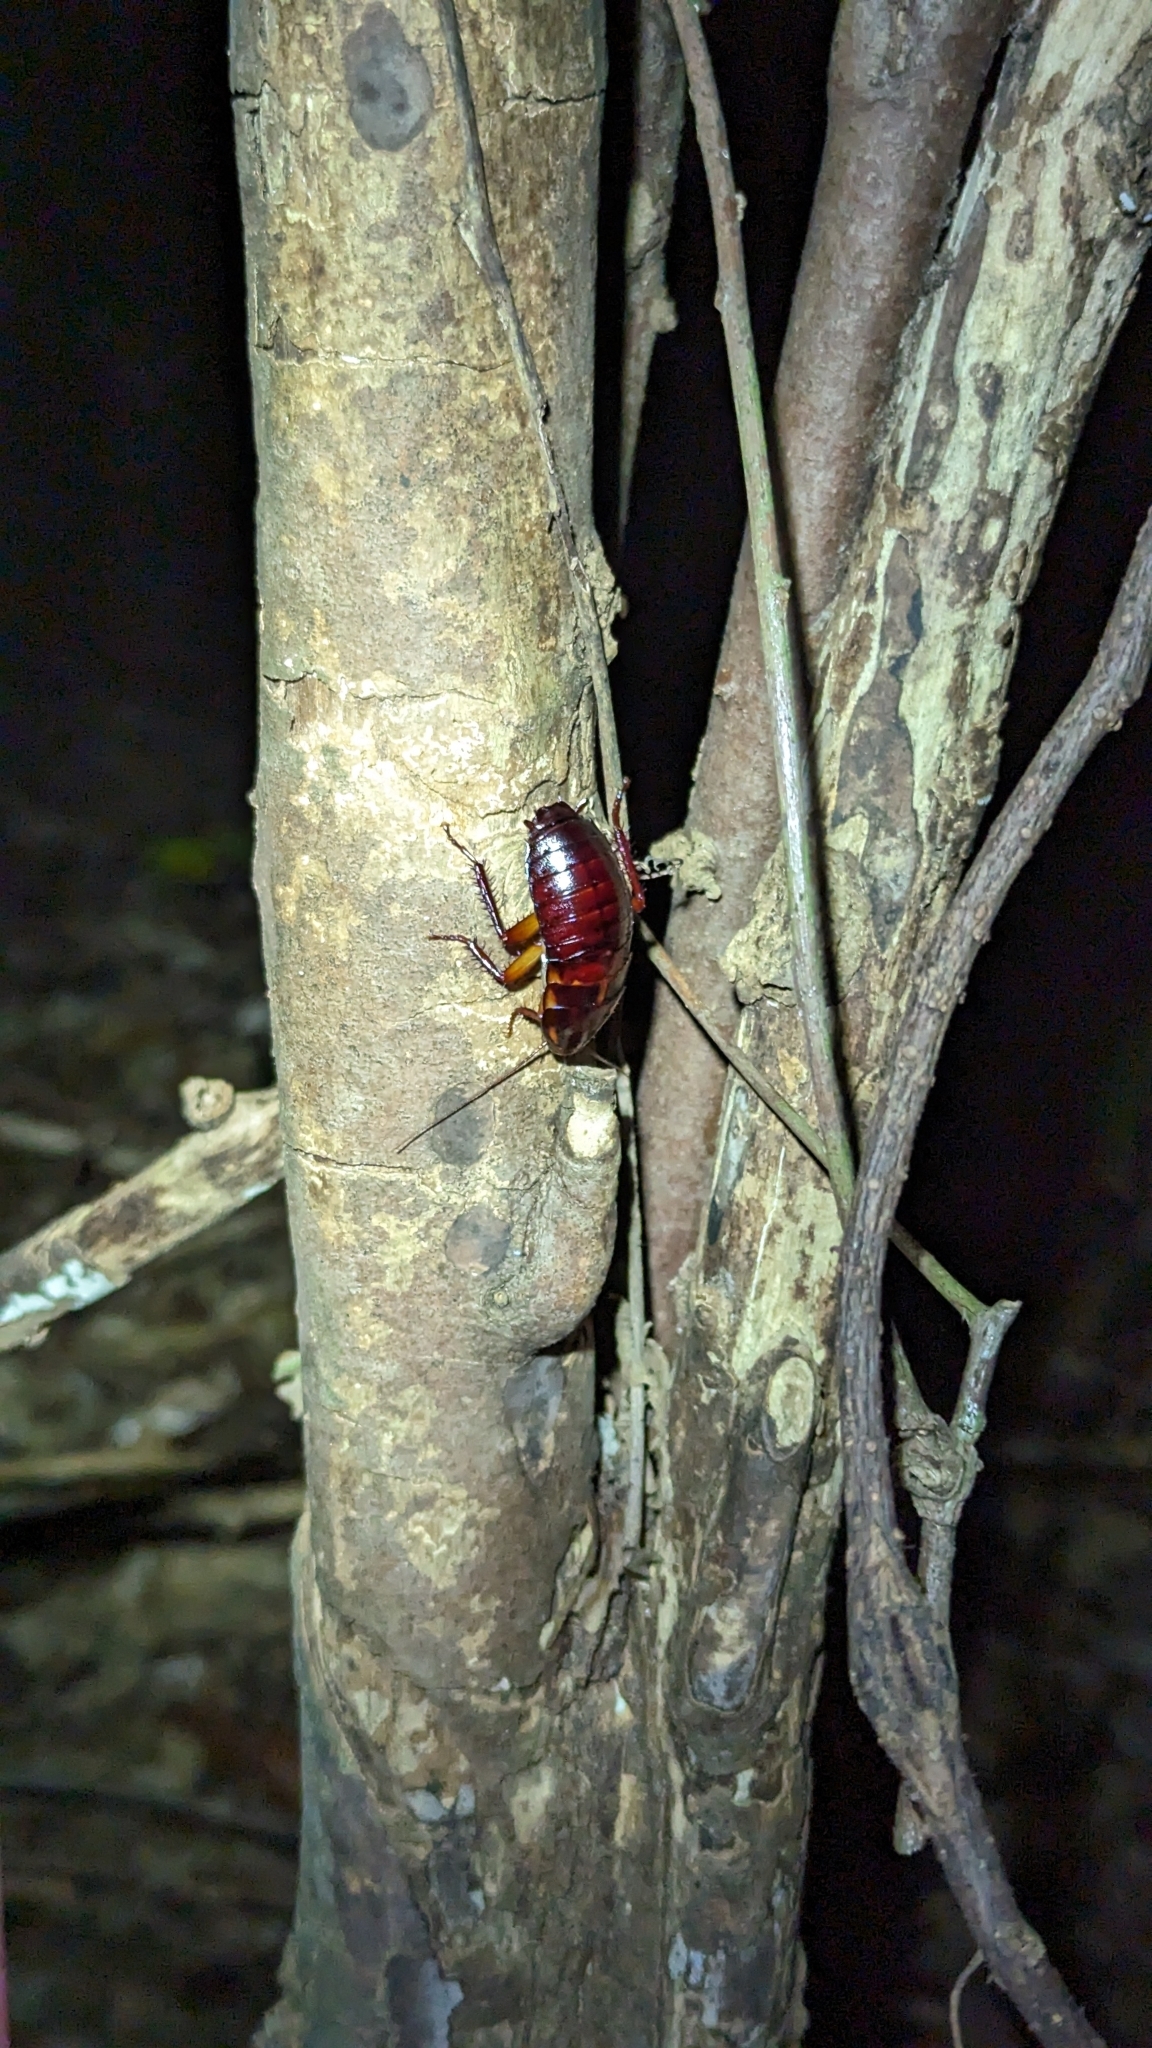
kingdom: Animalia
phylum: Arthropoda
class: Insecta
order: Blattodea
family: Blattidae
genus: Eurycotis
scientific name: Eurycotis floridana
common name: Florida cockroach
